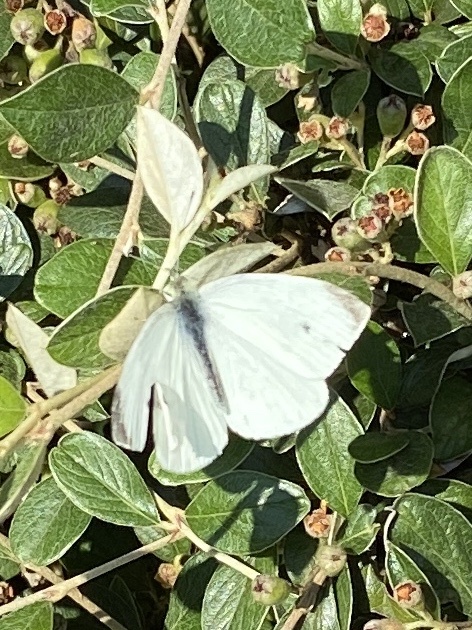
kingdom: Animalia
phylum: Arthropoda
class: Insecta
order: Lepidoptera
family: Pieridae
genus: Pieris
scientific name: Pieris rapae
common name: Small white
